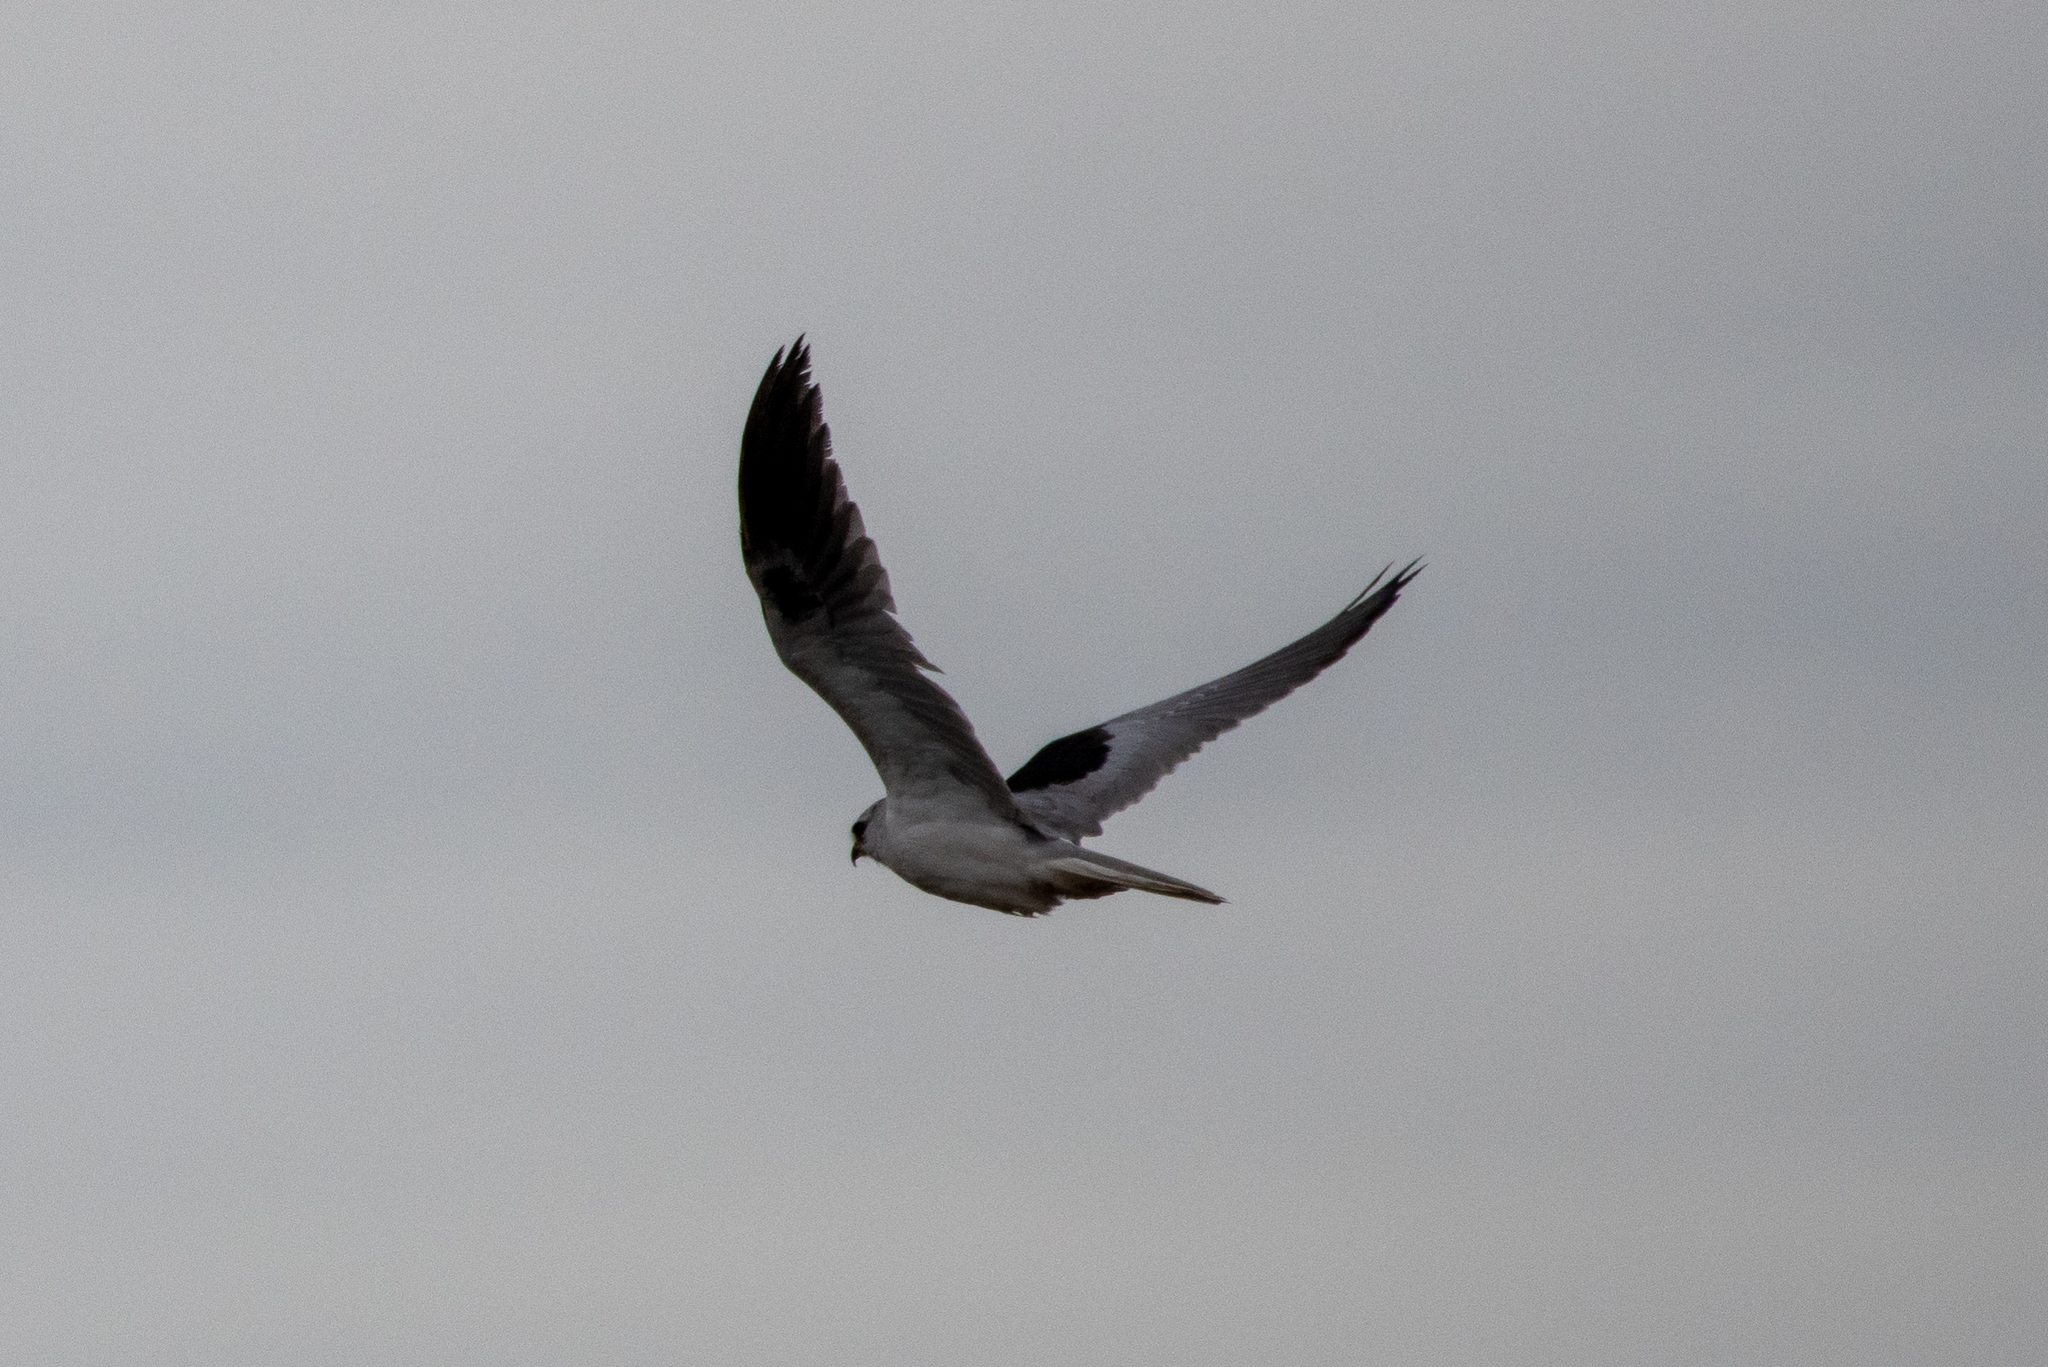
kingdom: Animalia
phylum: Chordata
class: Aves
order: Accipitriformes
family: Accipitridae
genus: Elanus
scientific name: Elanus leucurus
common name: White-tailed kite
